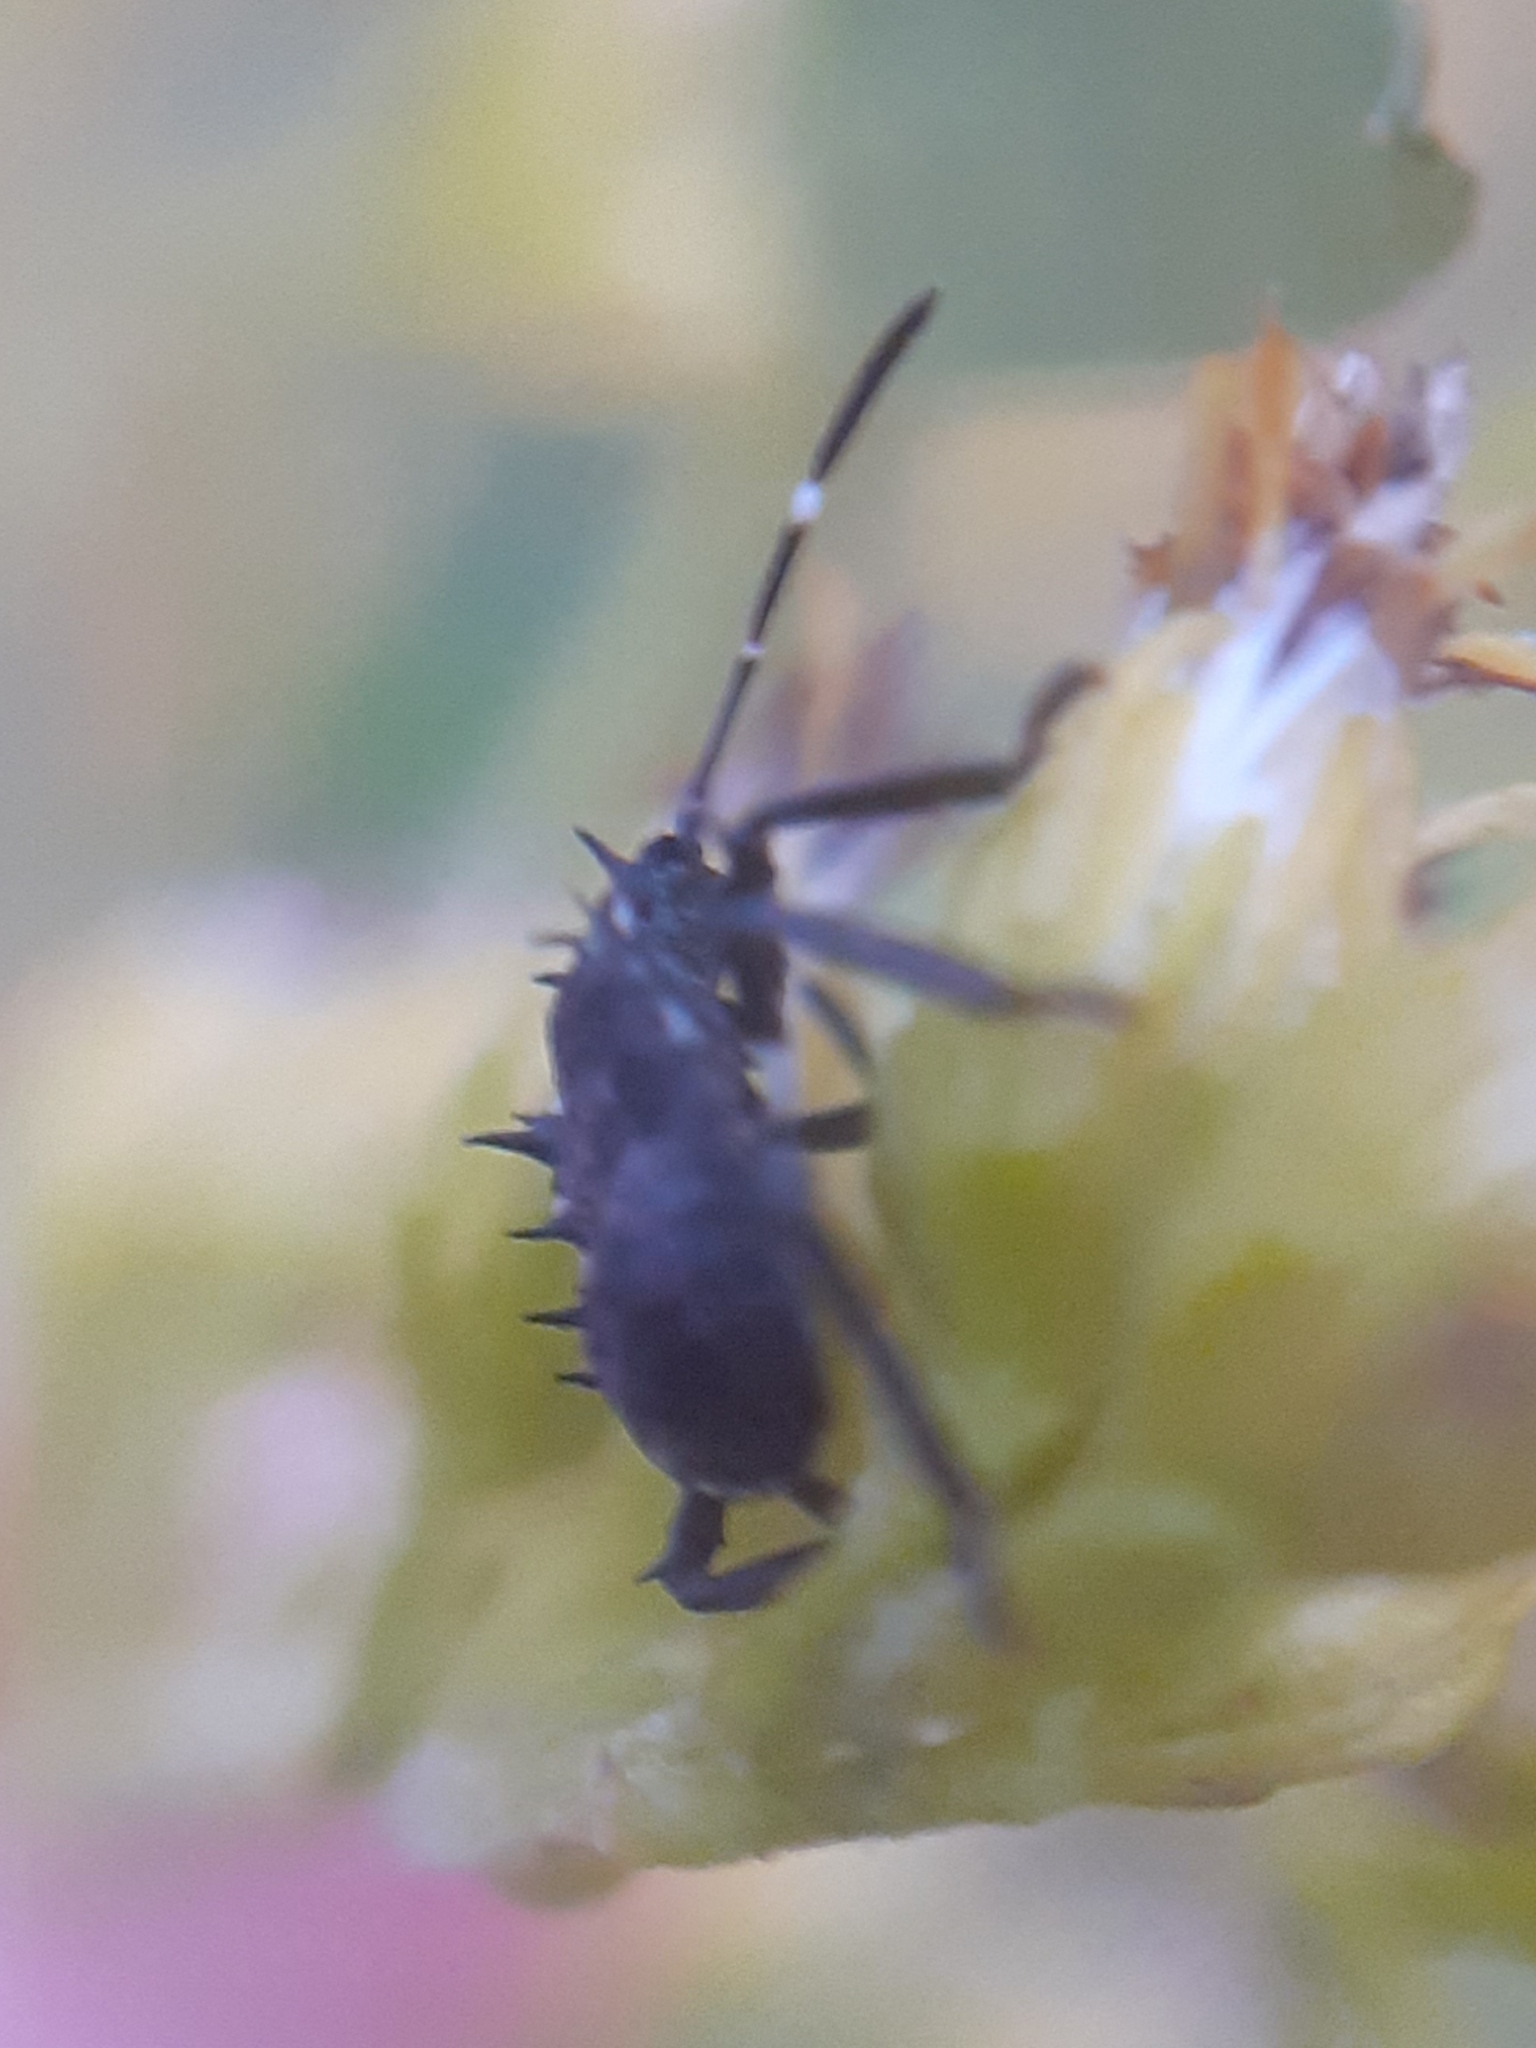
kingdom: Animalia
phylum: Arthropoda
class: Insecta
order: Hemiptera
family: Pentatomidae
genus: Halyomorpha
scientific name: Halyomorpha halys
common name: Brown marmorated stink bug
